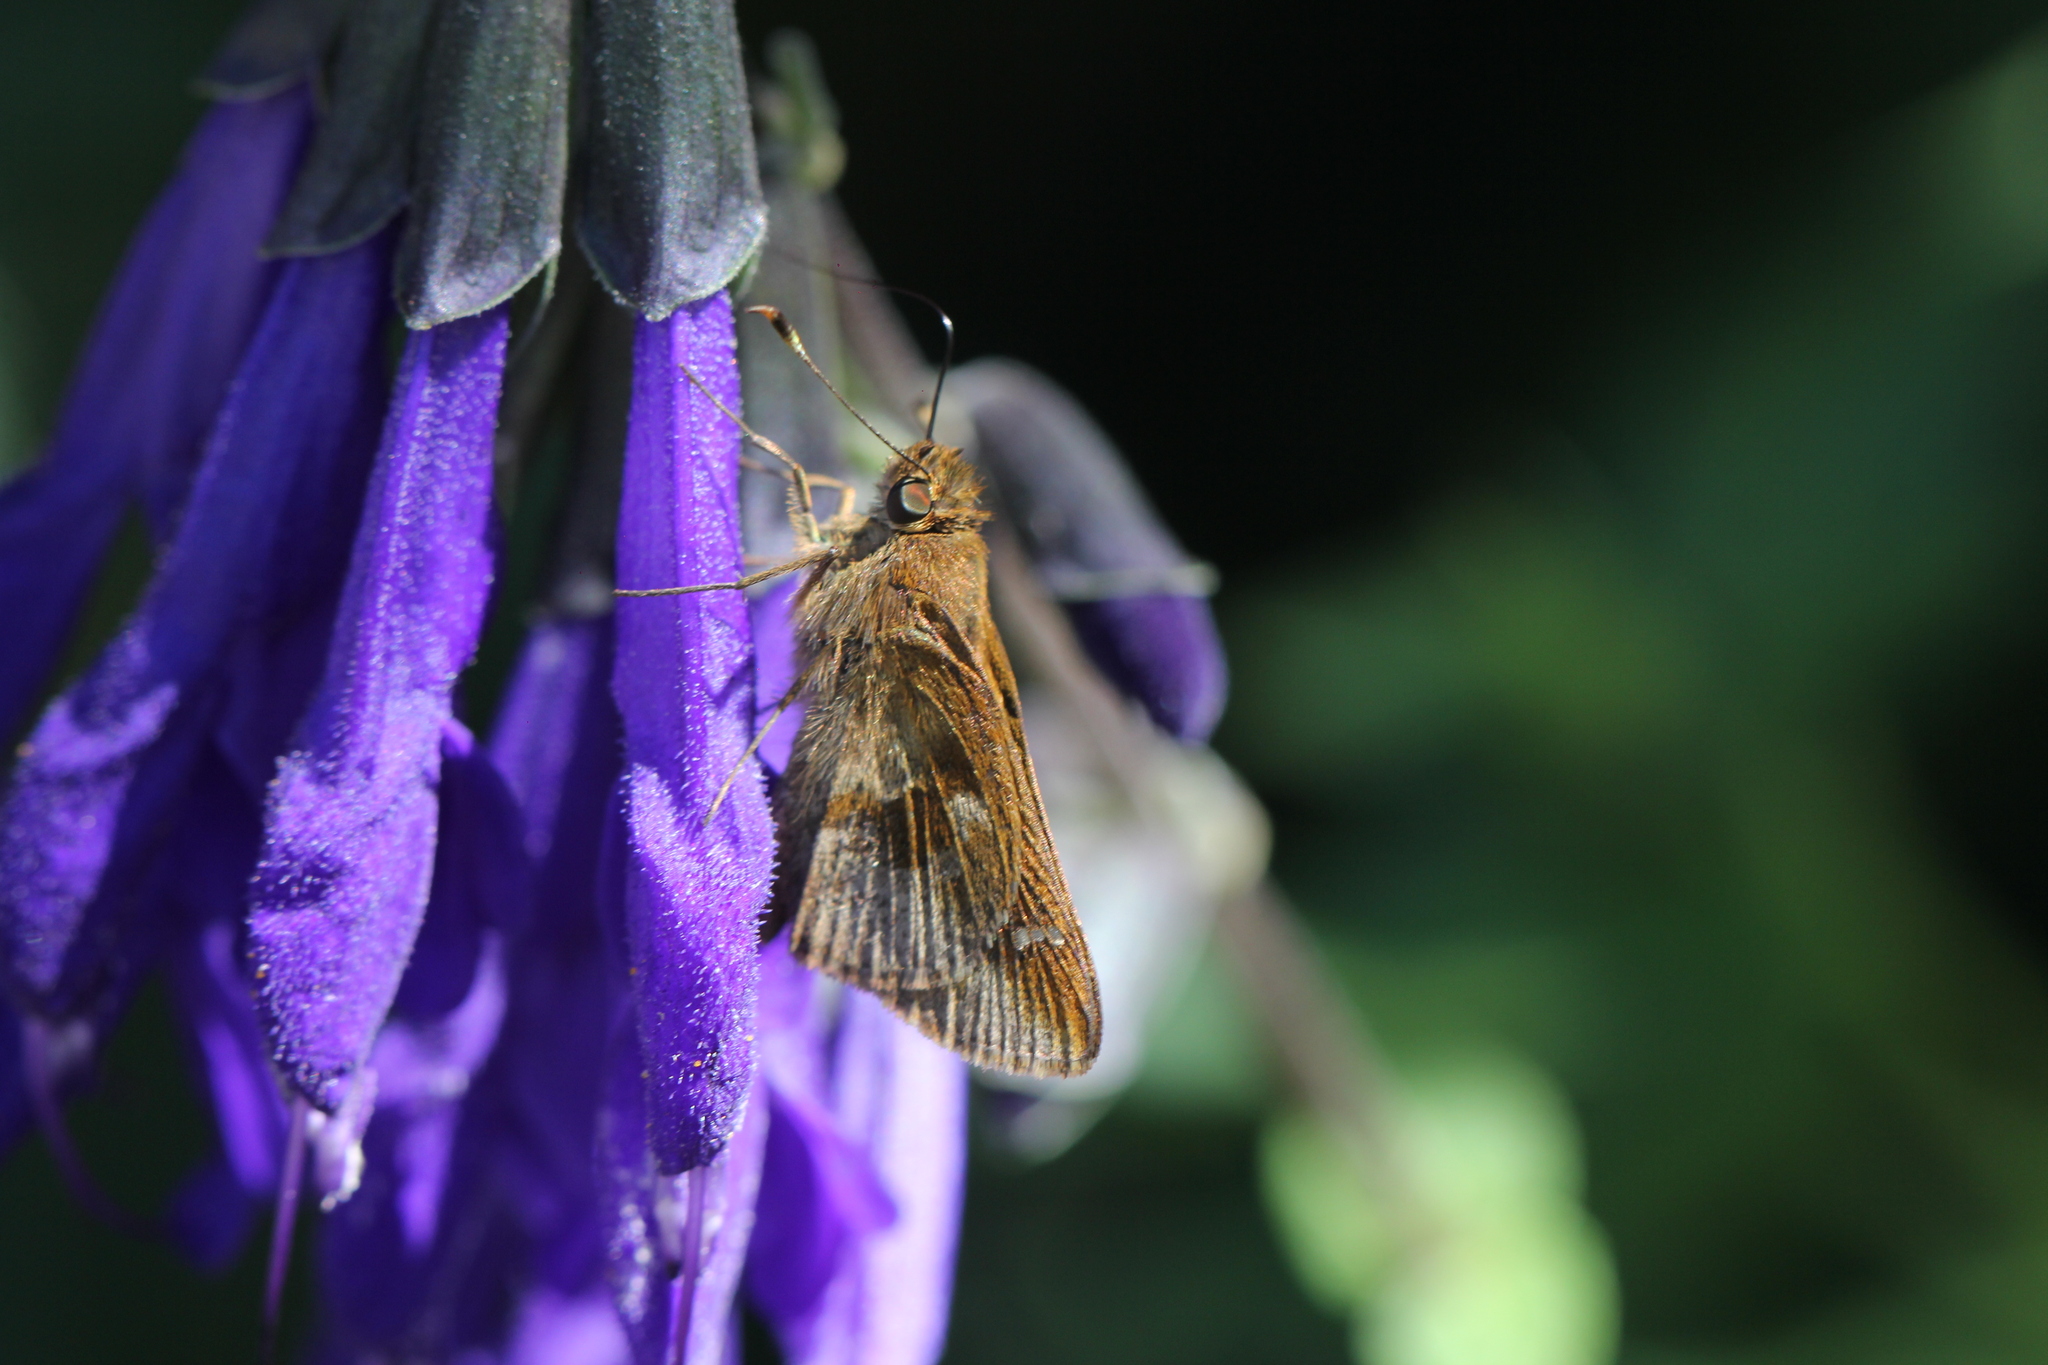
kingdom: Animalia
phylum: Arthropoda
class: Insecta
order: Lepidoptera
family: Hesperiidae
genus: Cymaenes
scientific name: Cymaenes
